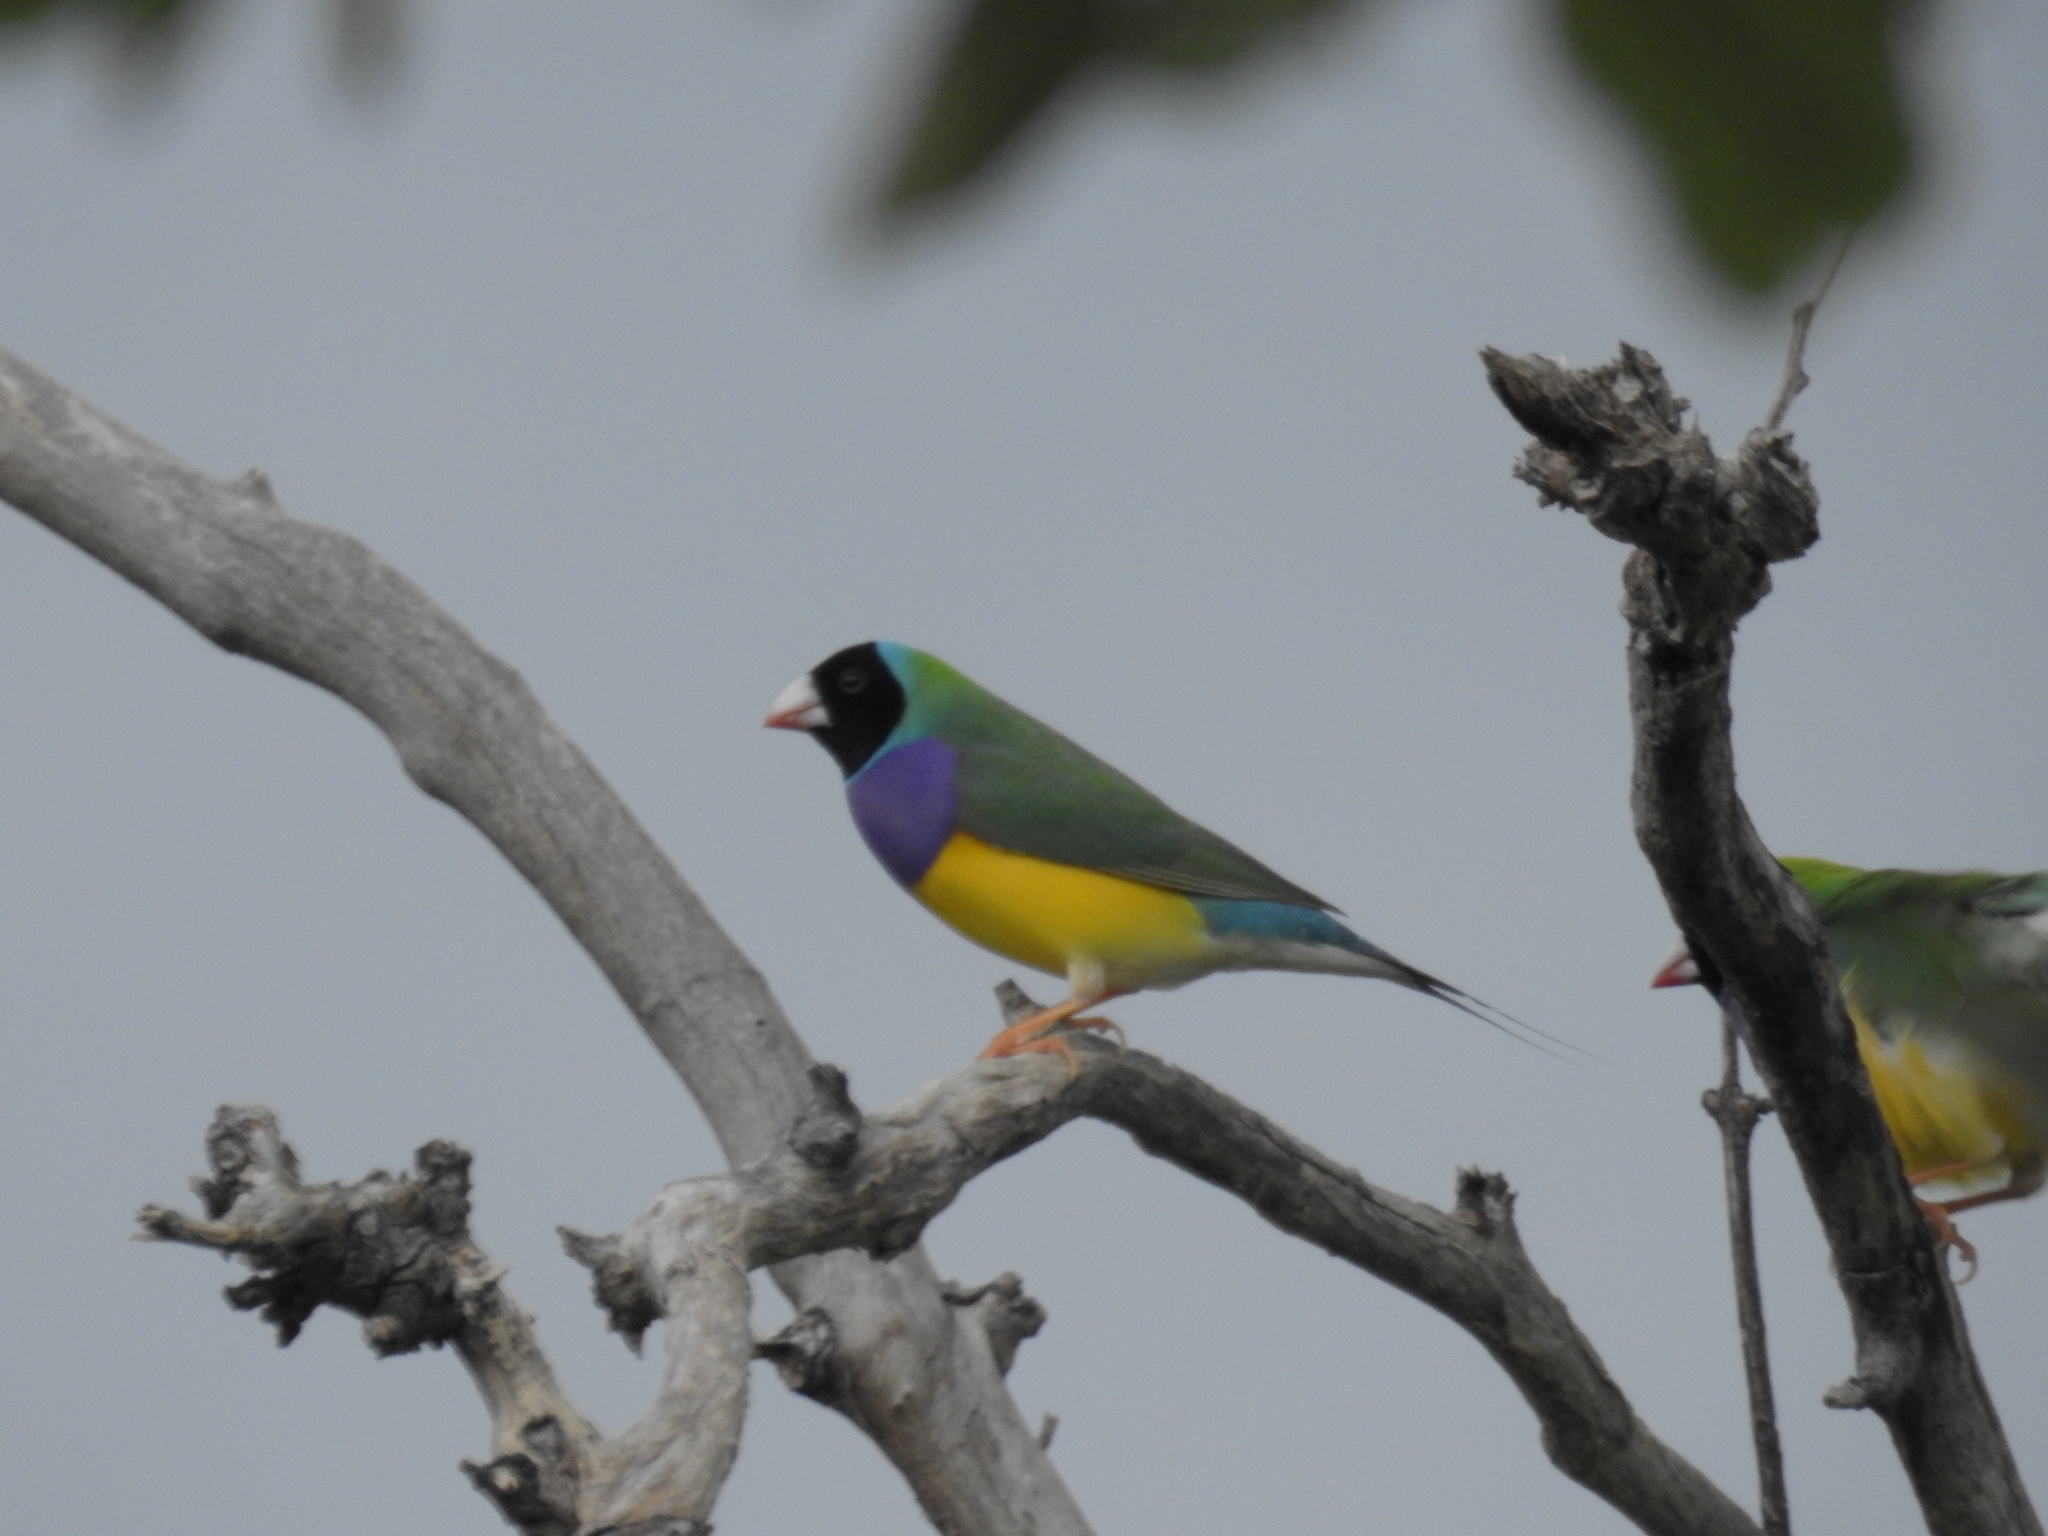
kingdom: Animalia
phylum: Chordata
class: Aves
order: Passeriformes
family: Estrildidae
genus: Erythrura
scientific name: Erythrura gouldiae
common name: Gouldian finch
